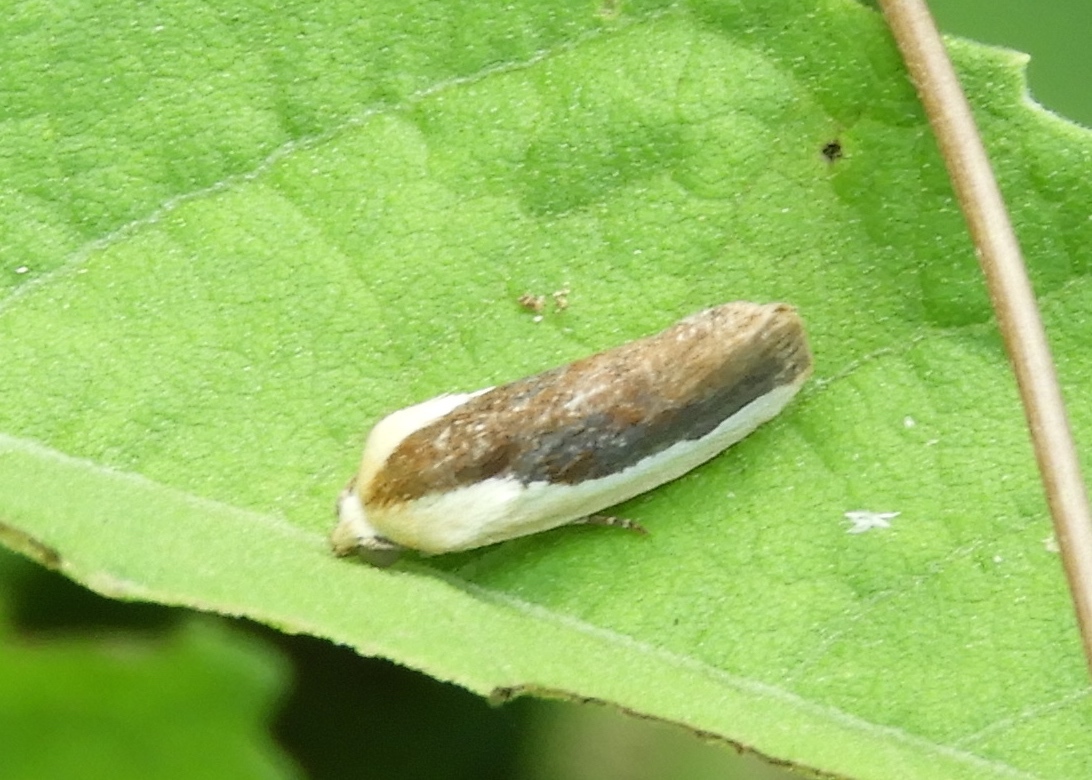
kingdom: Animalia
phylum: Arthropoda
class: Insecta
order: Lepidoptera
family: Noctuidae
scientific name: Noctuidae
